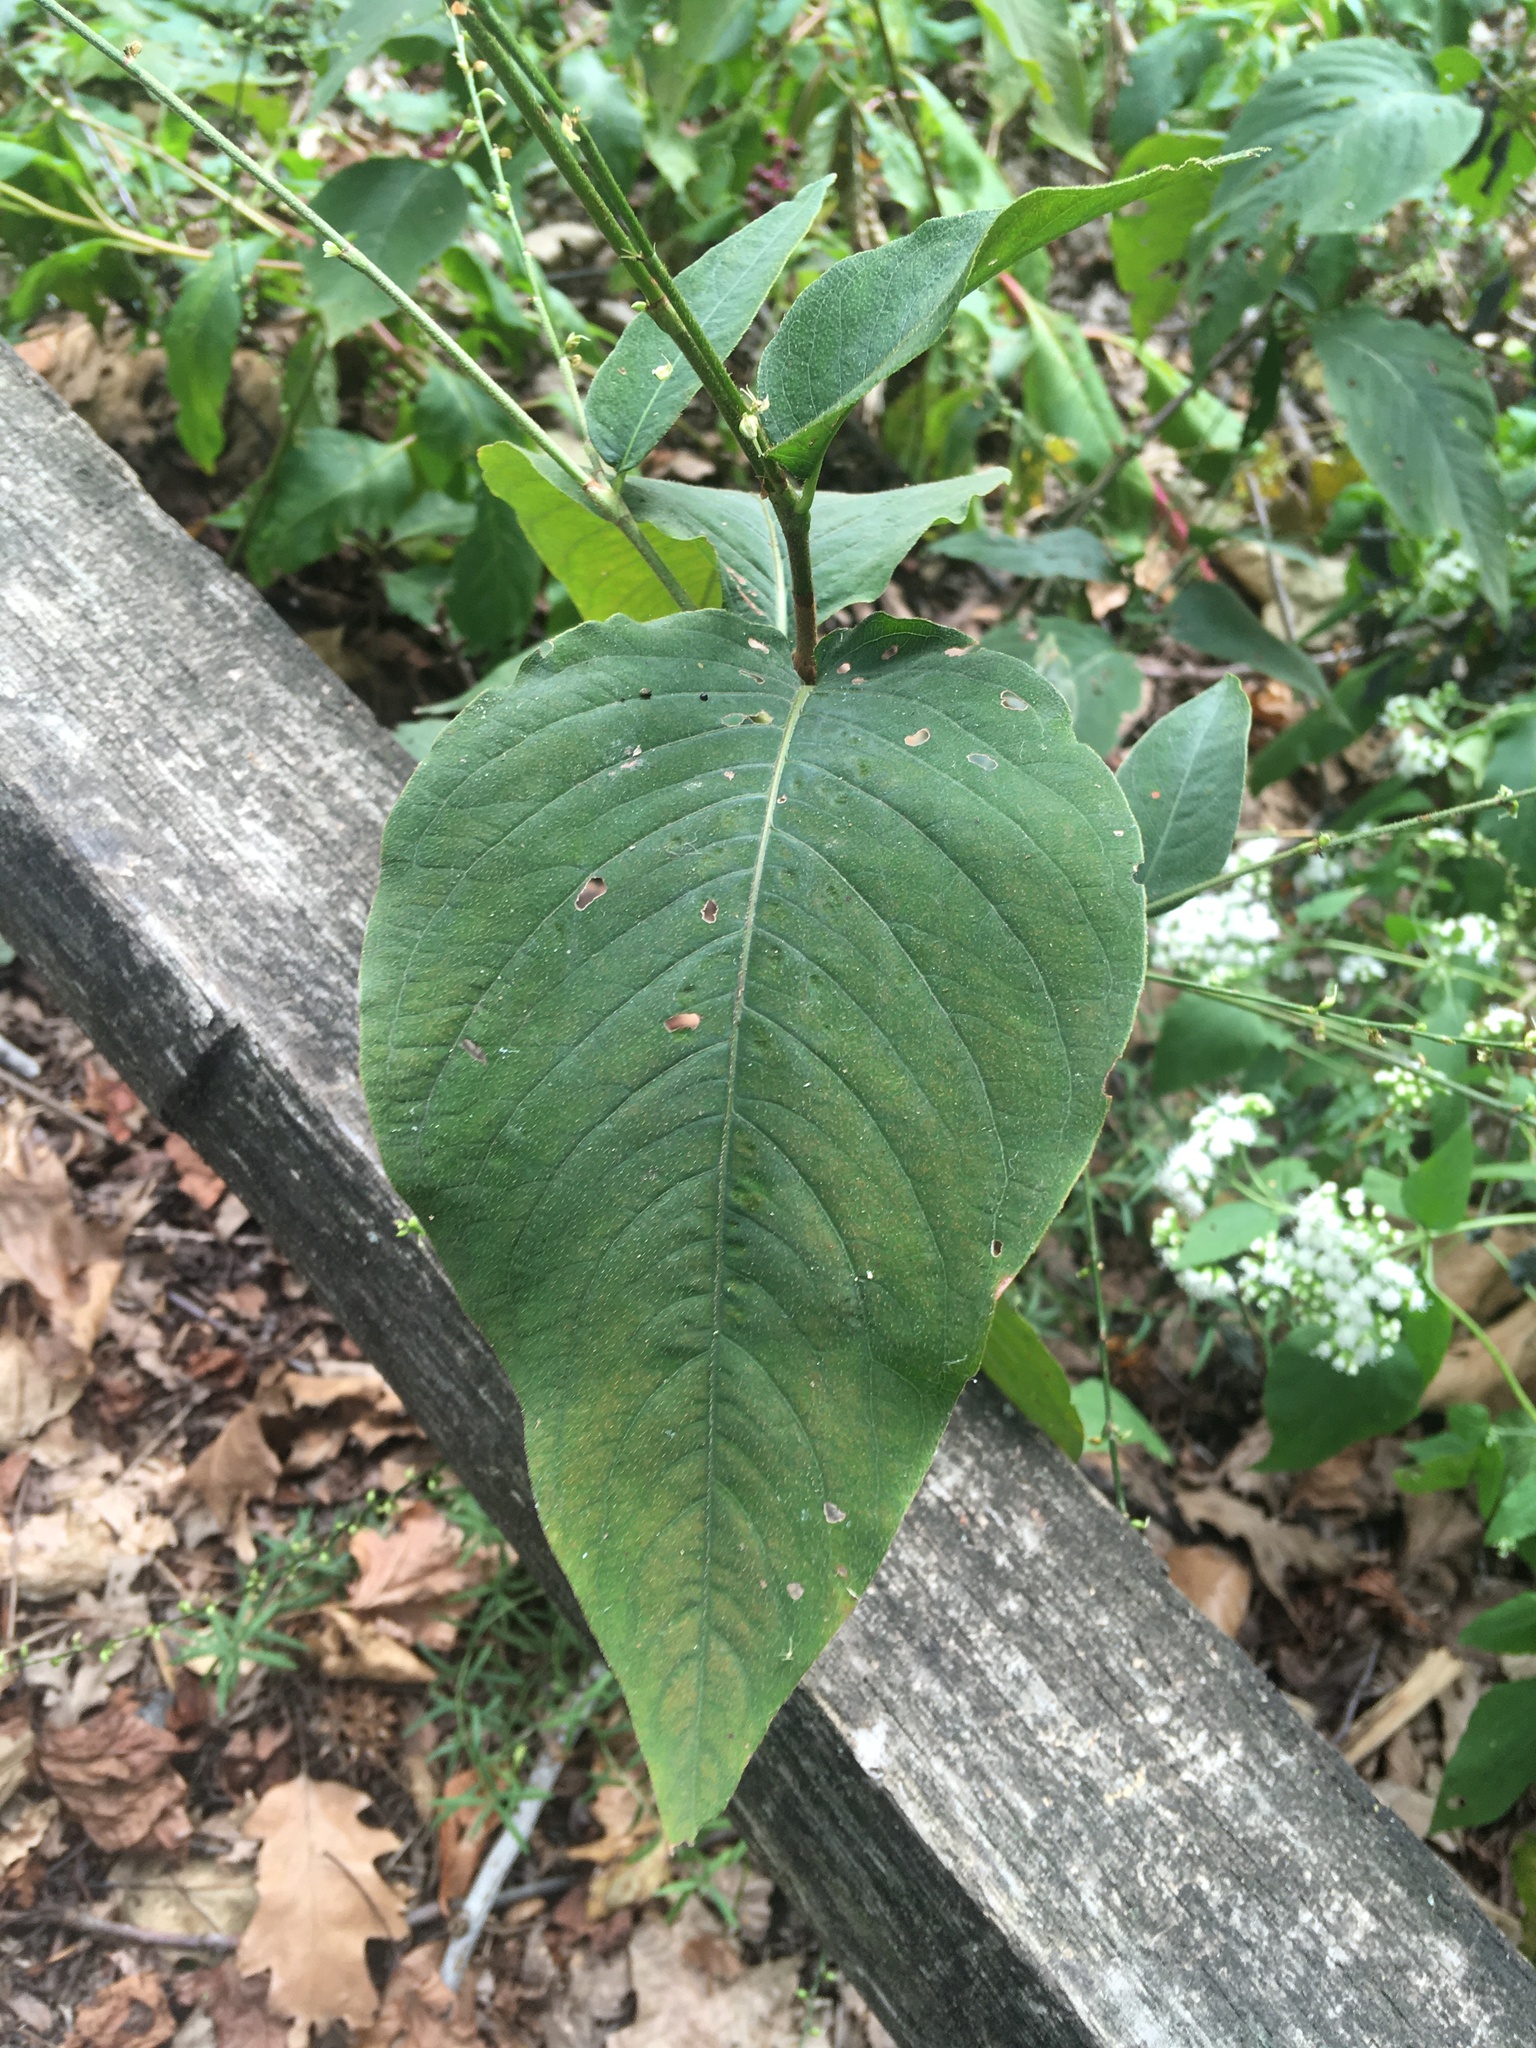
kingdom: Plantae
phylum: Tracheophyta
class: Magnoliopsida
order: Caryophyllales
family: Polygonaceae
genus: Persicaria
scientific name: Persicaria virginiana
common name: Jumpseed
